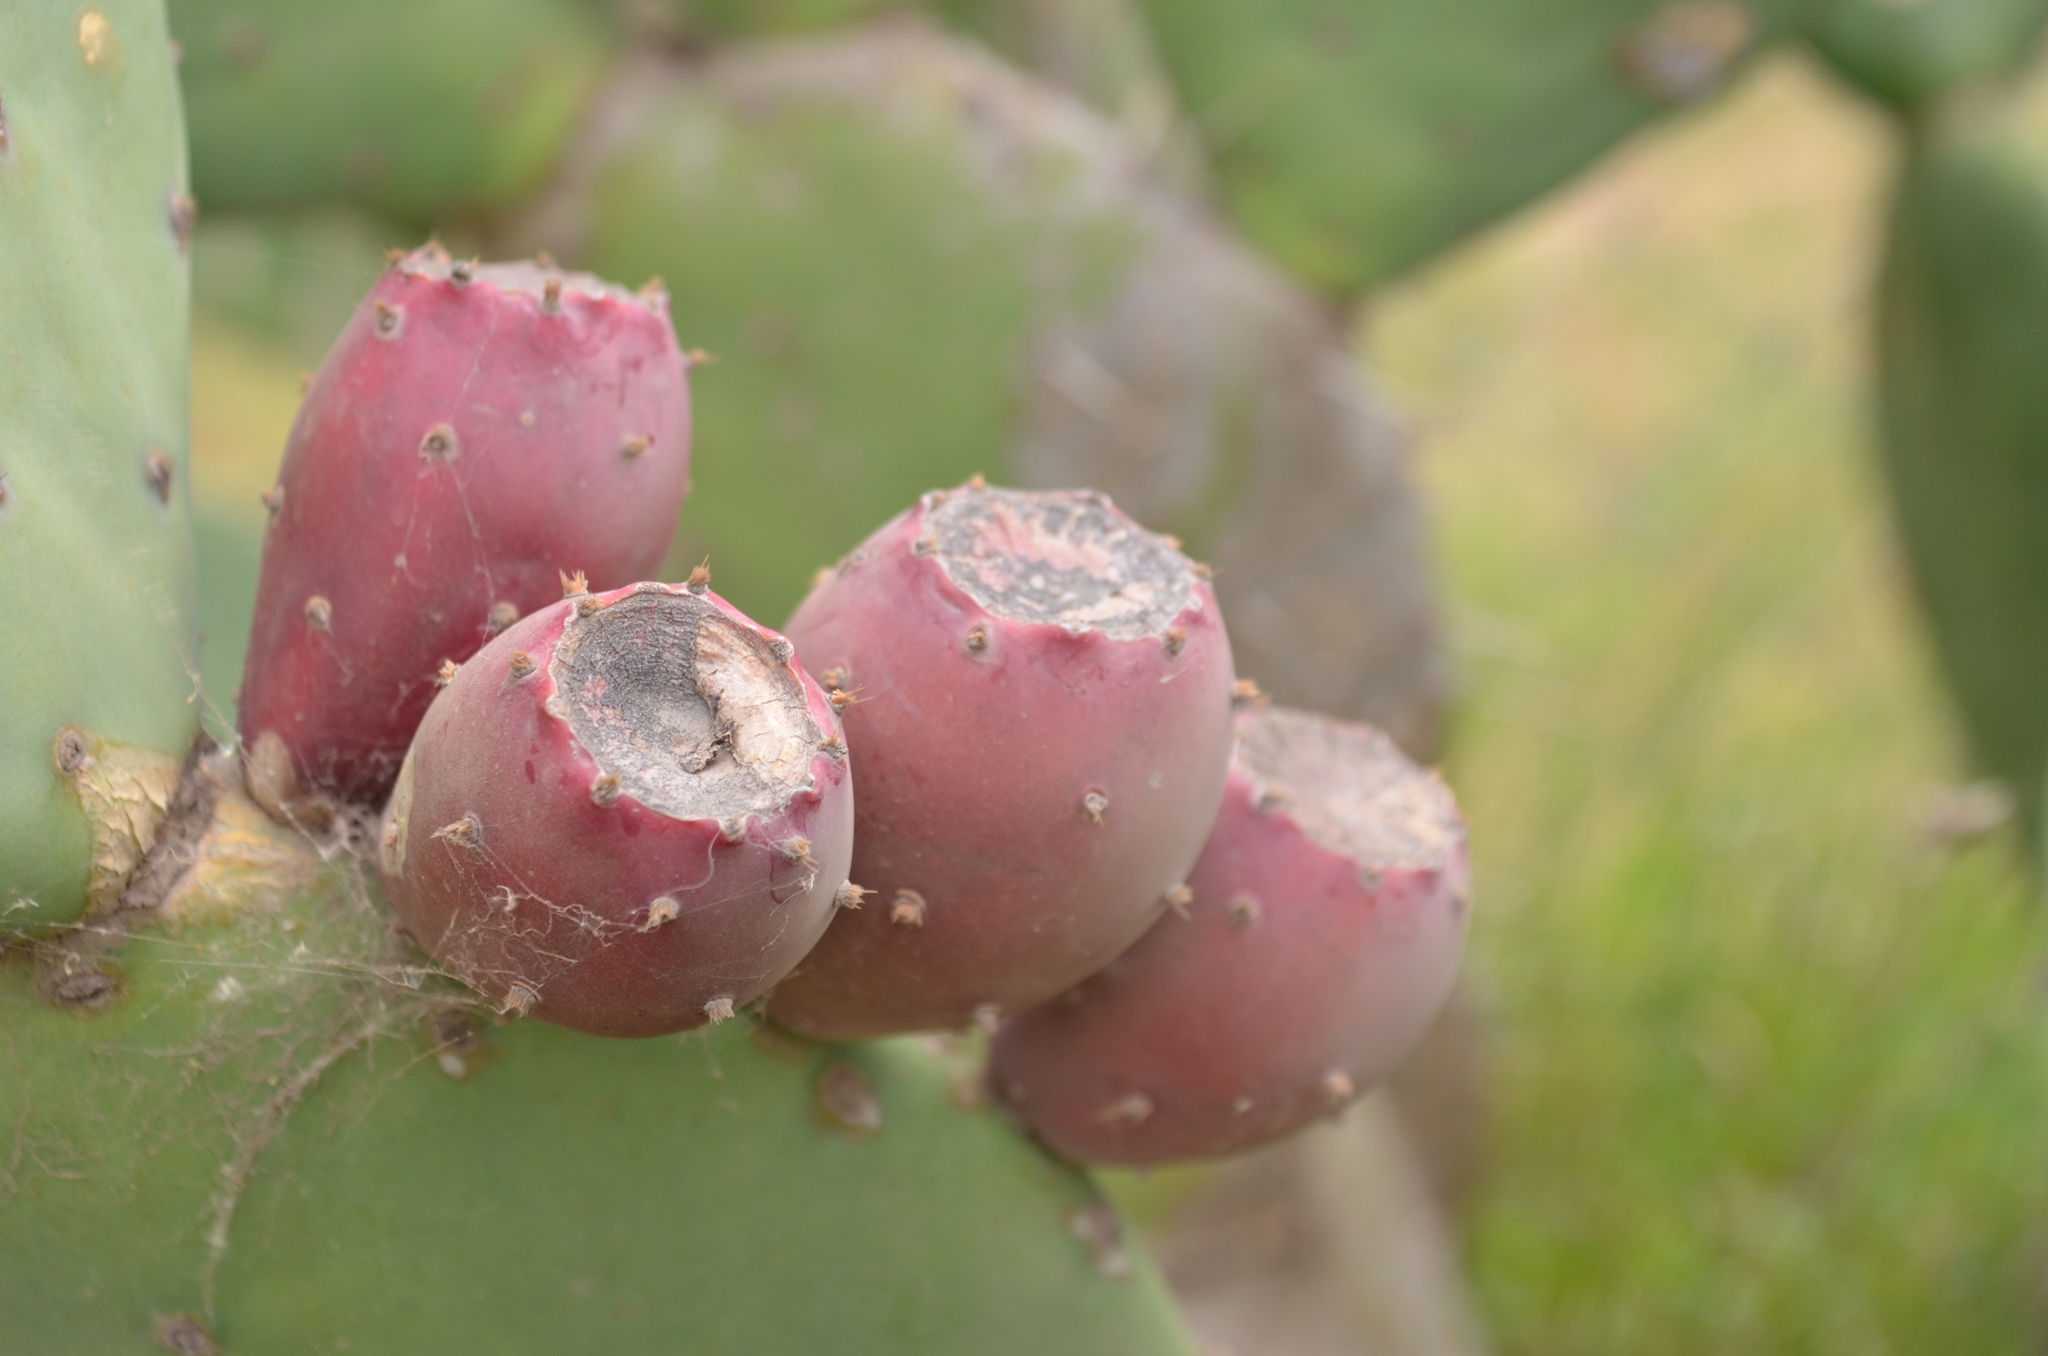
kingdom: Plantae
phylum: Tracheophyta
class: Magnoliopsida
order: Caryophyllales
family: Cactaceae
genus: Opuntia
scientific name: Opuntia ficus-indica
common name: Barbary fig
